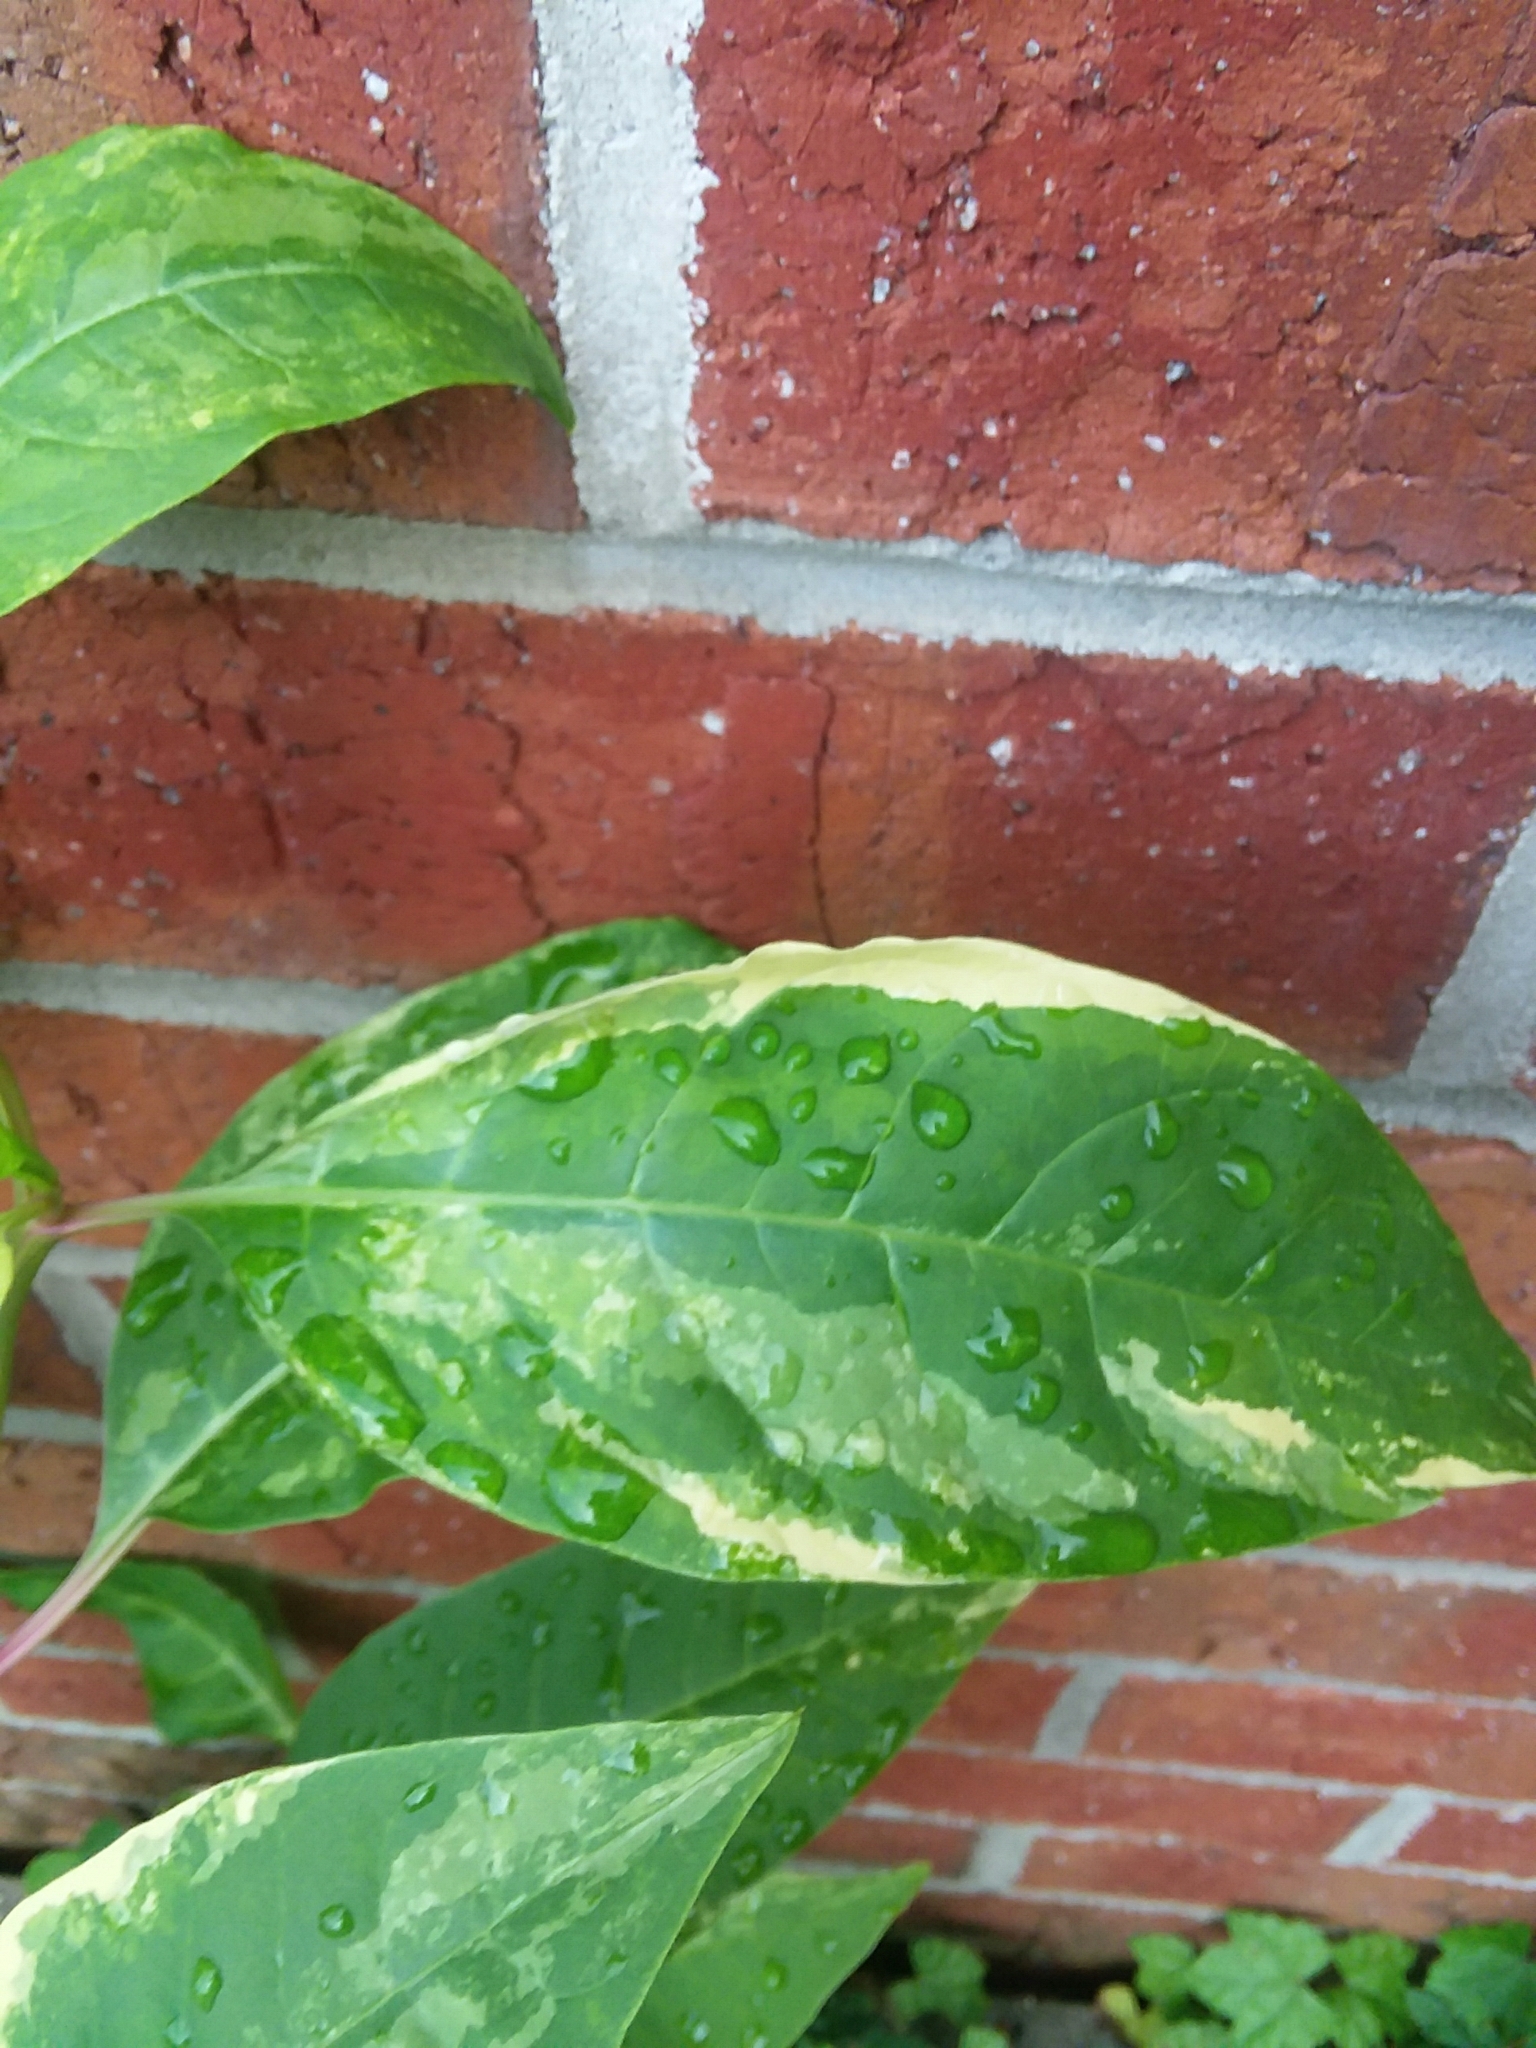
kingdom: Plantae
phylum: Tracheophyta
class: Magnoliopsida
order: Caryophyllales
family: Phytolaccaceae
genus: Phytolacca
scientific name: Phytolacca americana
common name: American pokeweed
